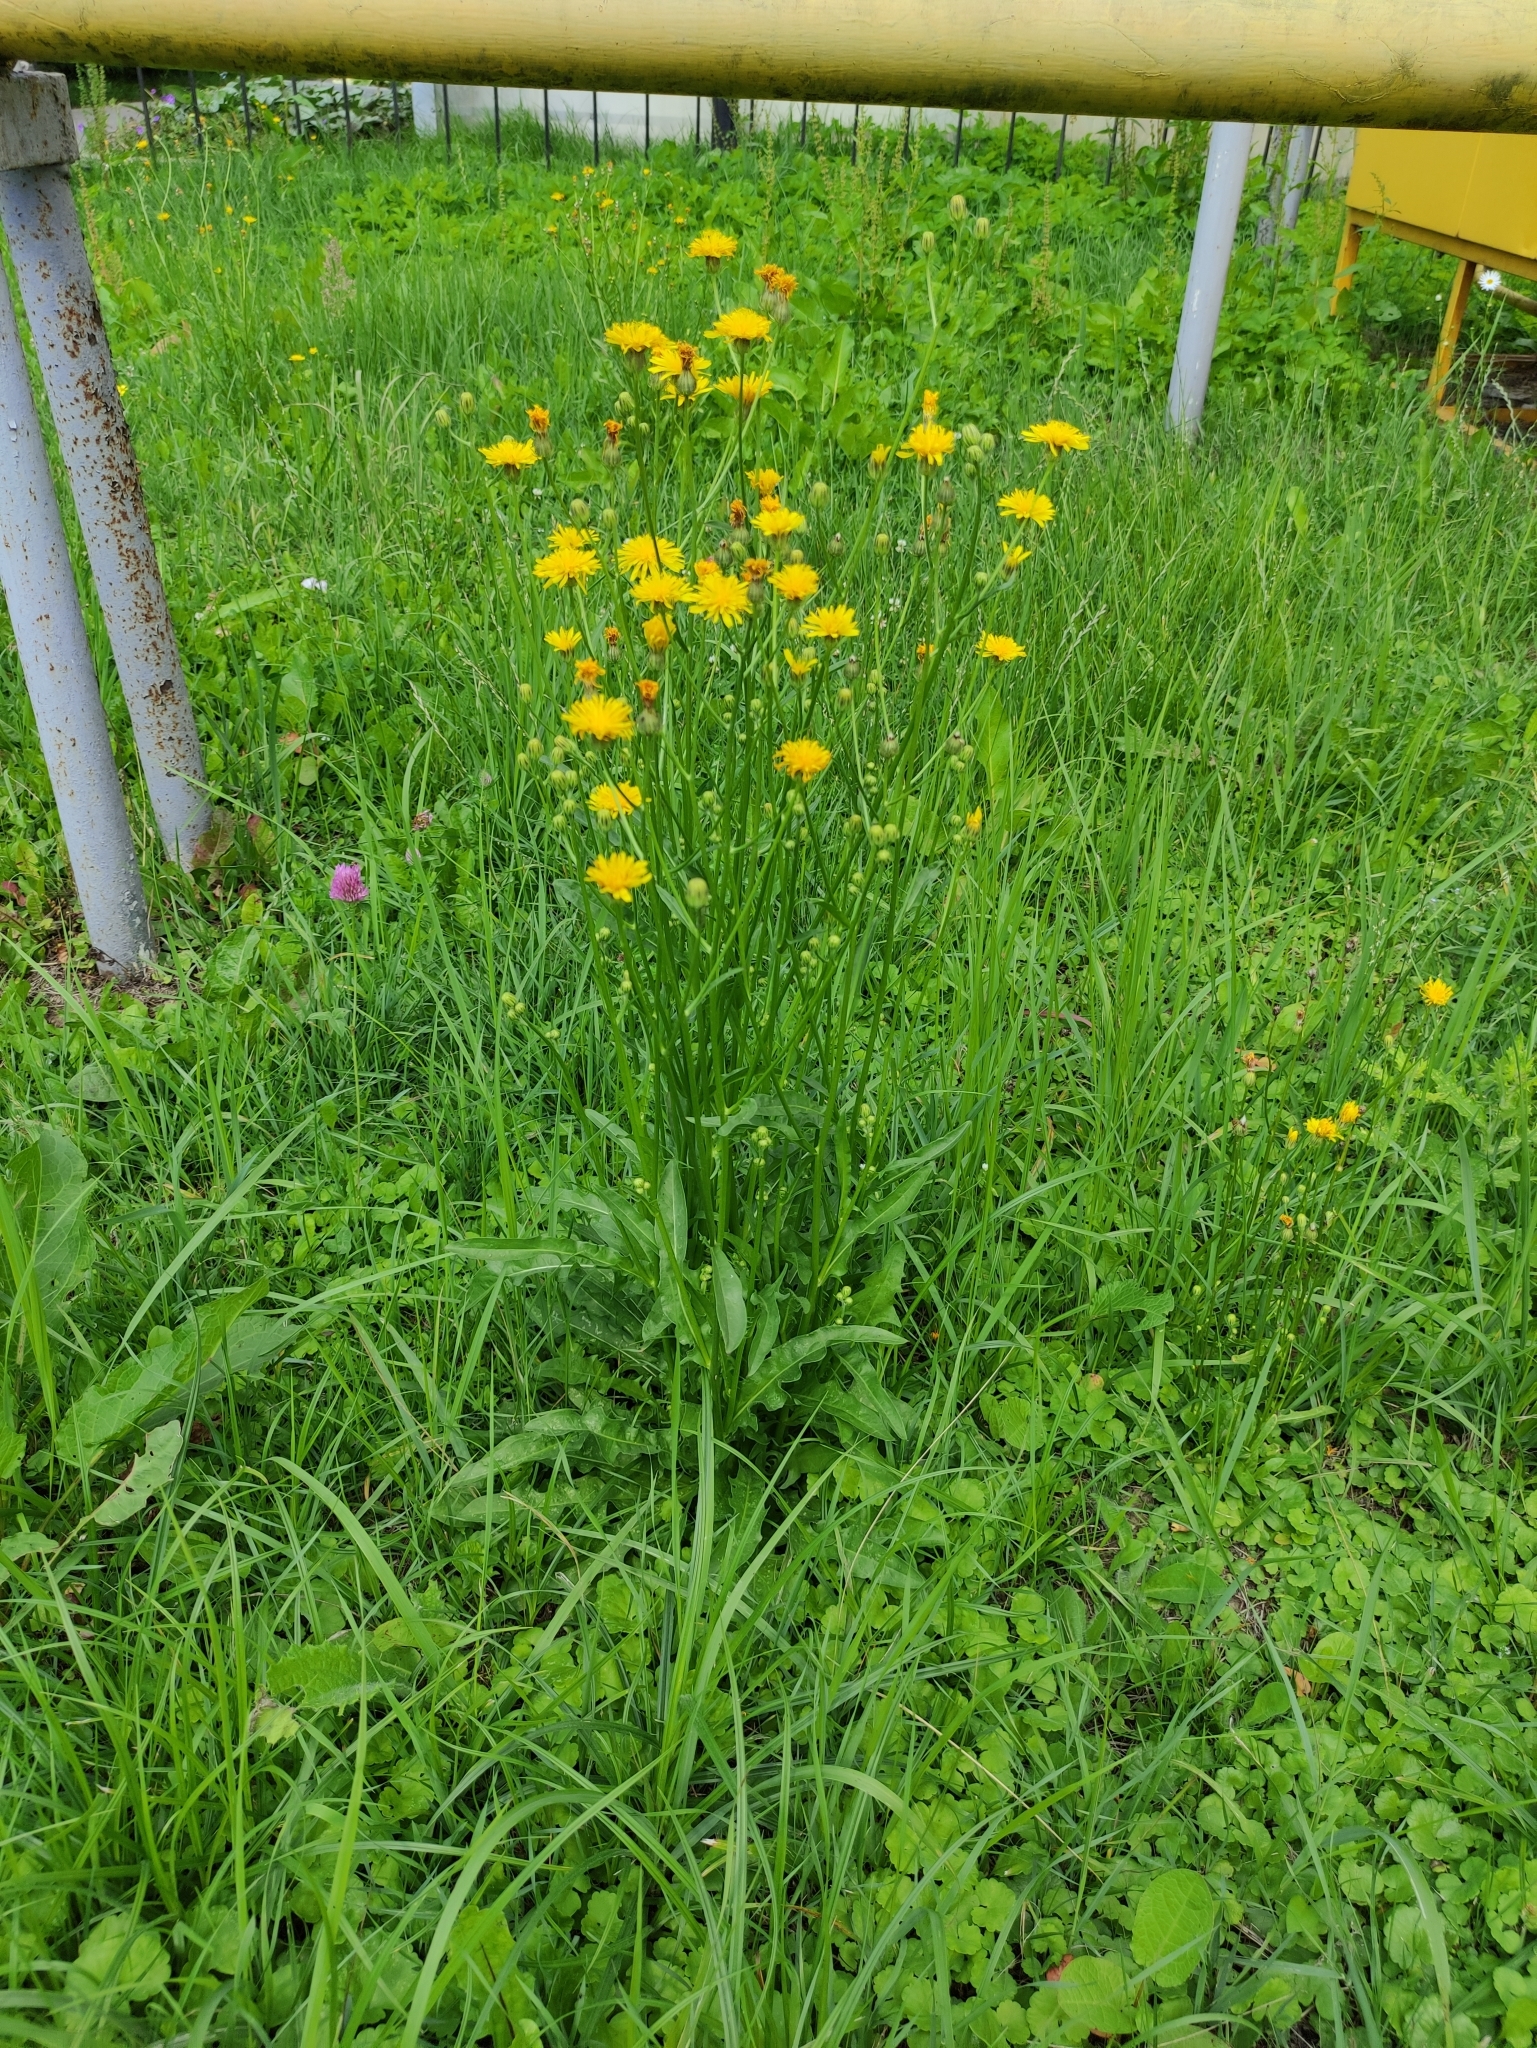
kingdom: Plantae
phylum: Tracheophyta
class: Magnoliopsida
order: Asterales
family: Asteraceae
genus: Crepis
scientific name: Crepis biennis
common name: Rough hawk's-beard
